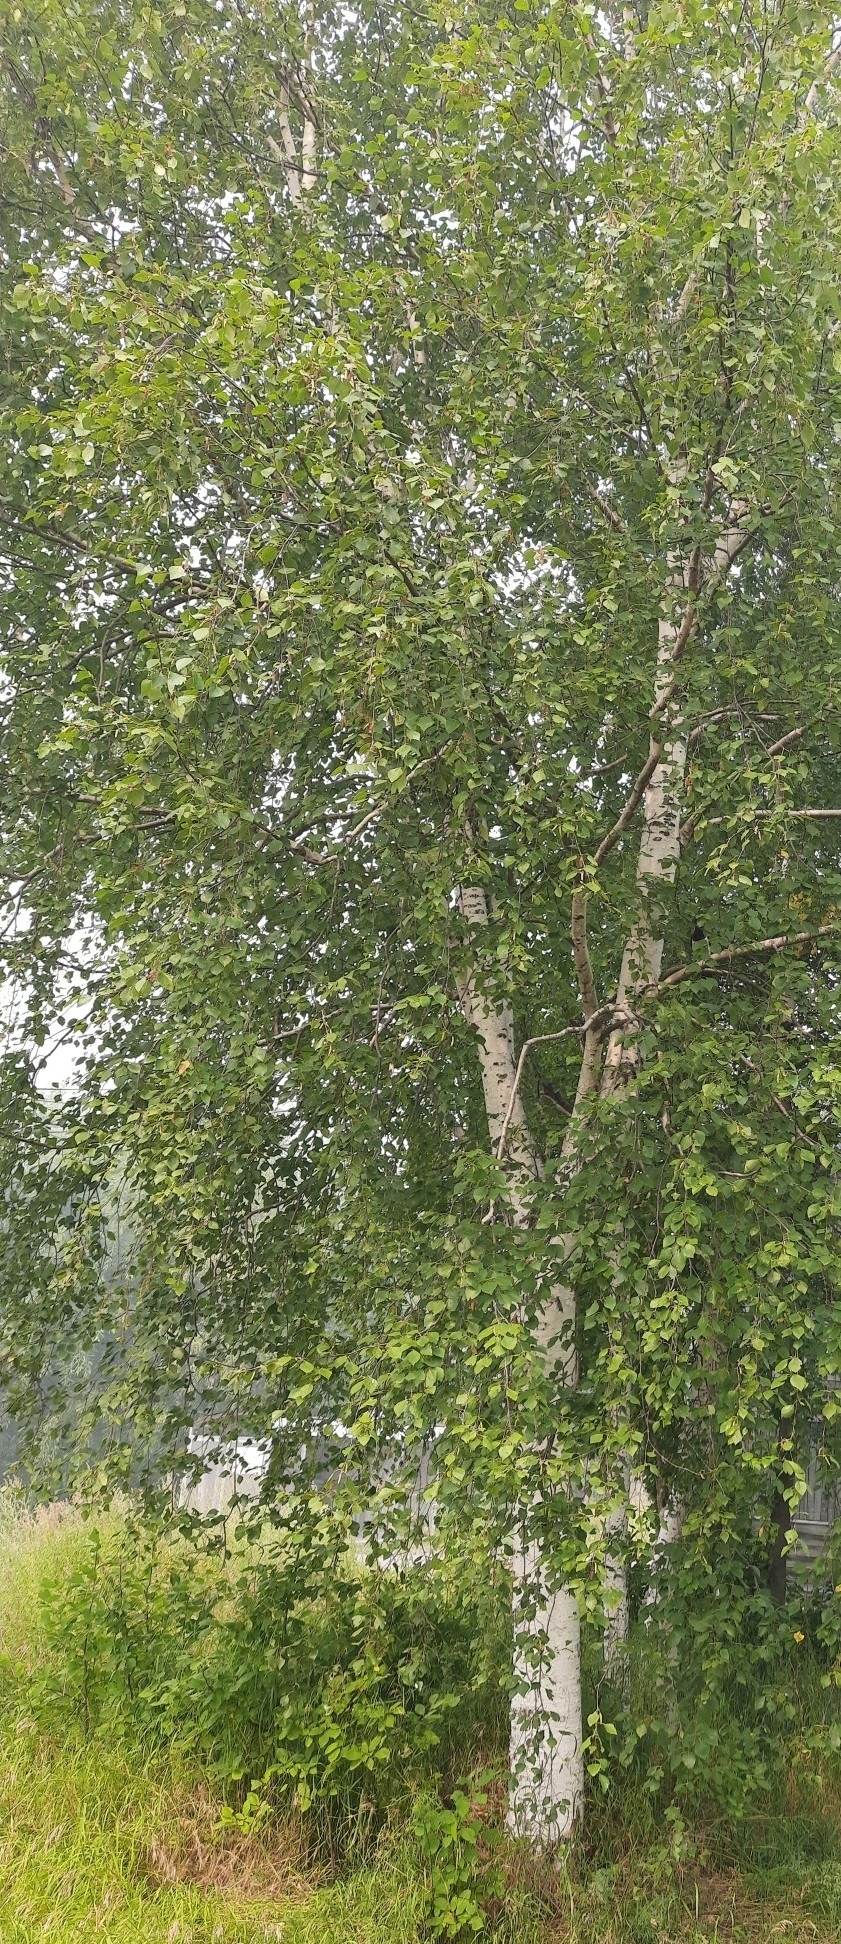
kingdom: Plantae
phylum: Tracheophyta
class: Magnoliopsida
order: Fagales
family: Betulaceae
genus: Betula
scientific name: Betula pendula
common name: Silver birch
